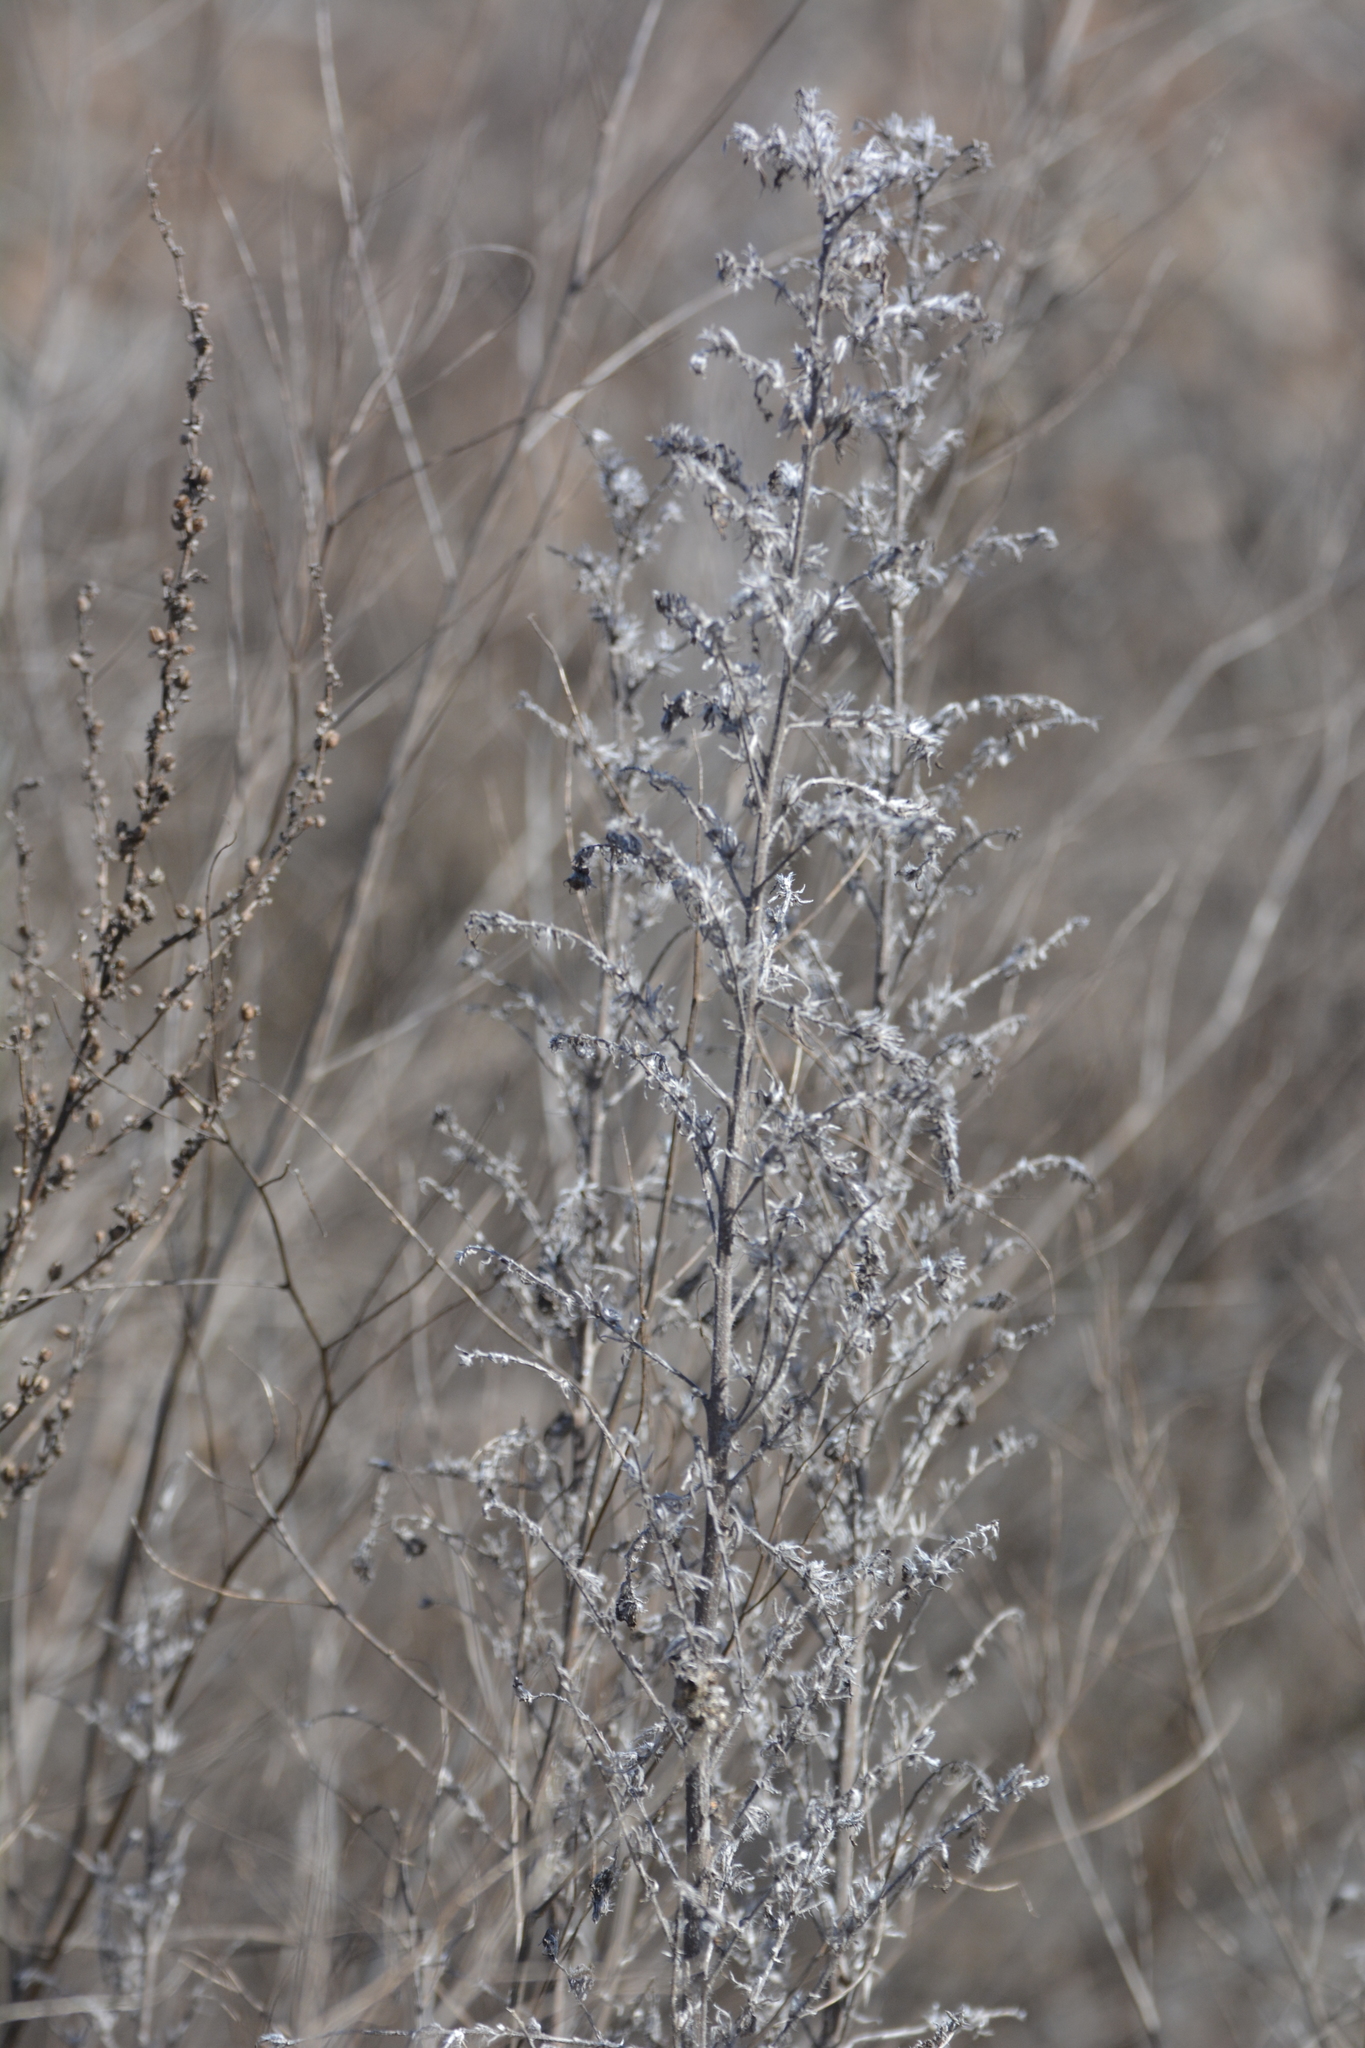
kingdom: Plantae
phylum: Tracheophyta
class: Magnoliopsida
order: Boraginales
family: Boraginaceae
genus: Echium
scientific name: Echium vulgare
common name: Common viper's bugloss
